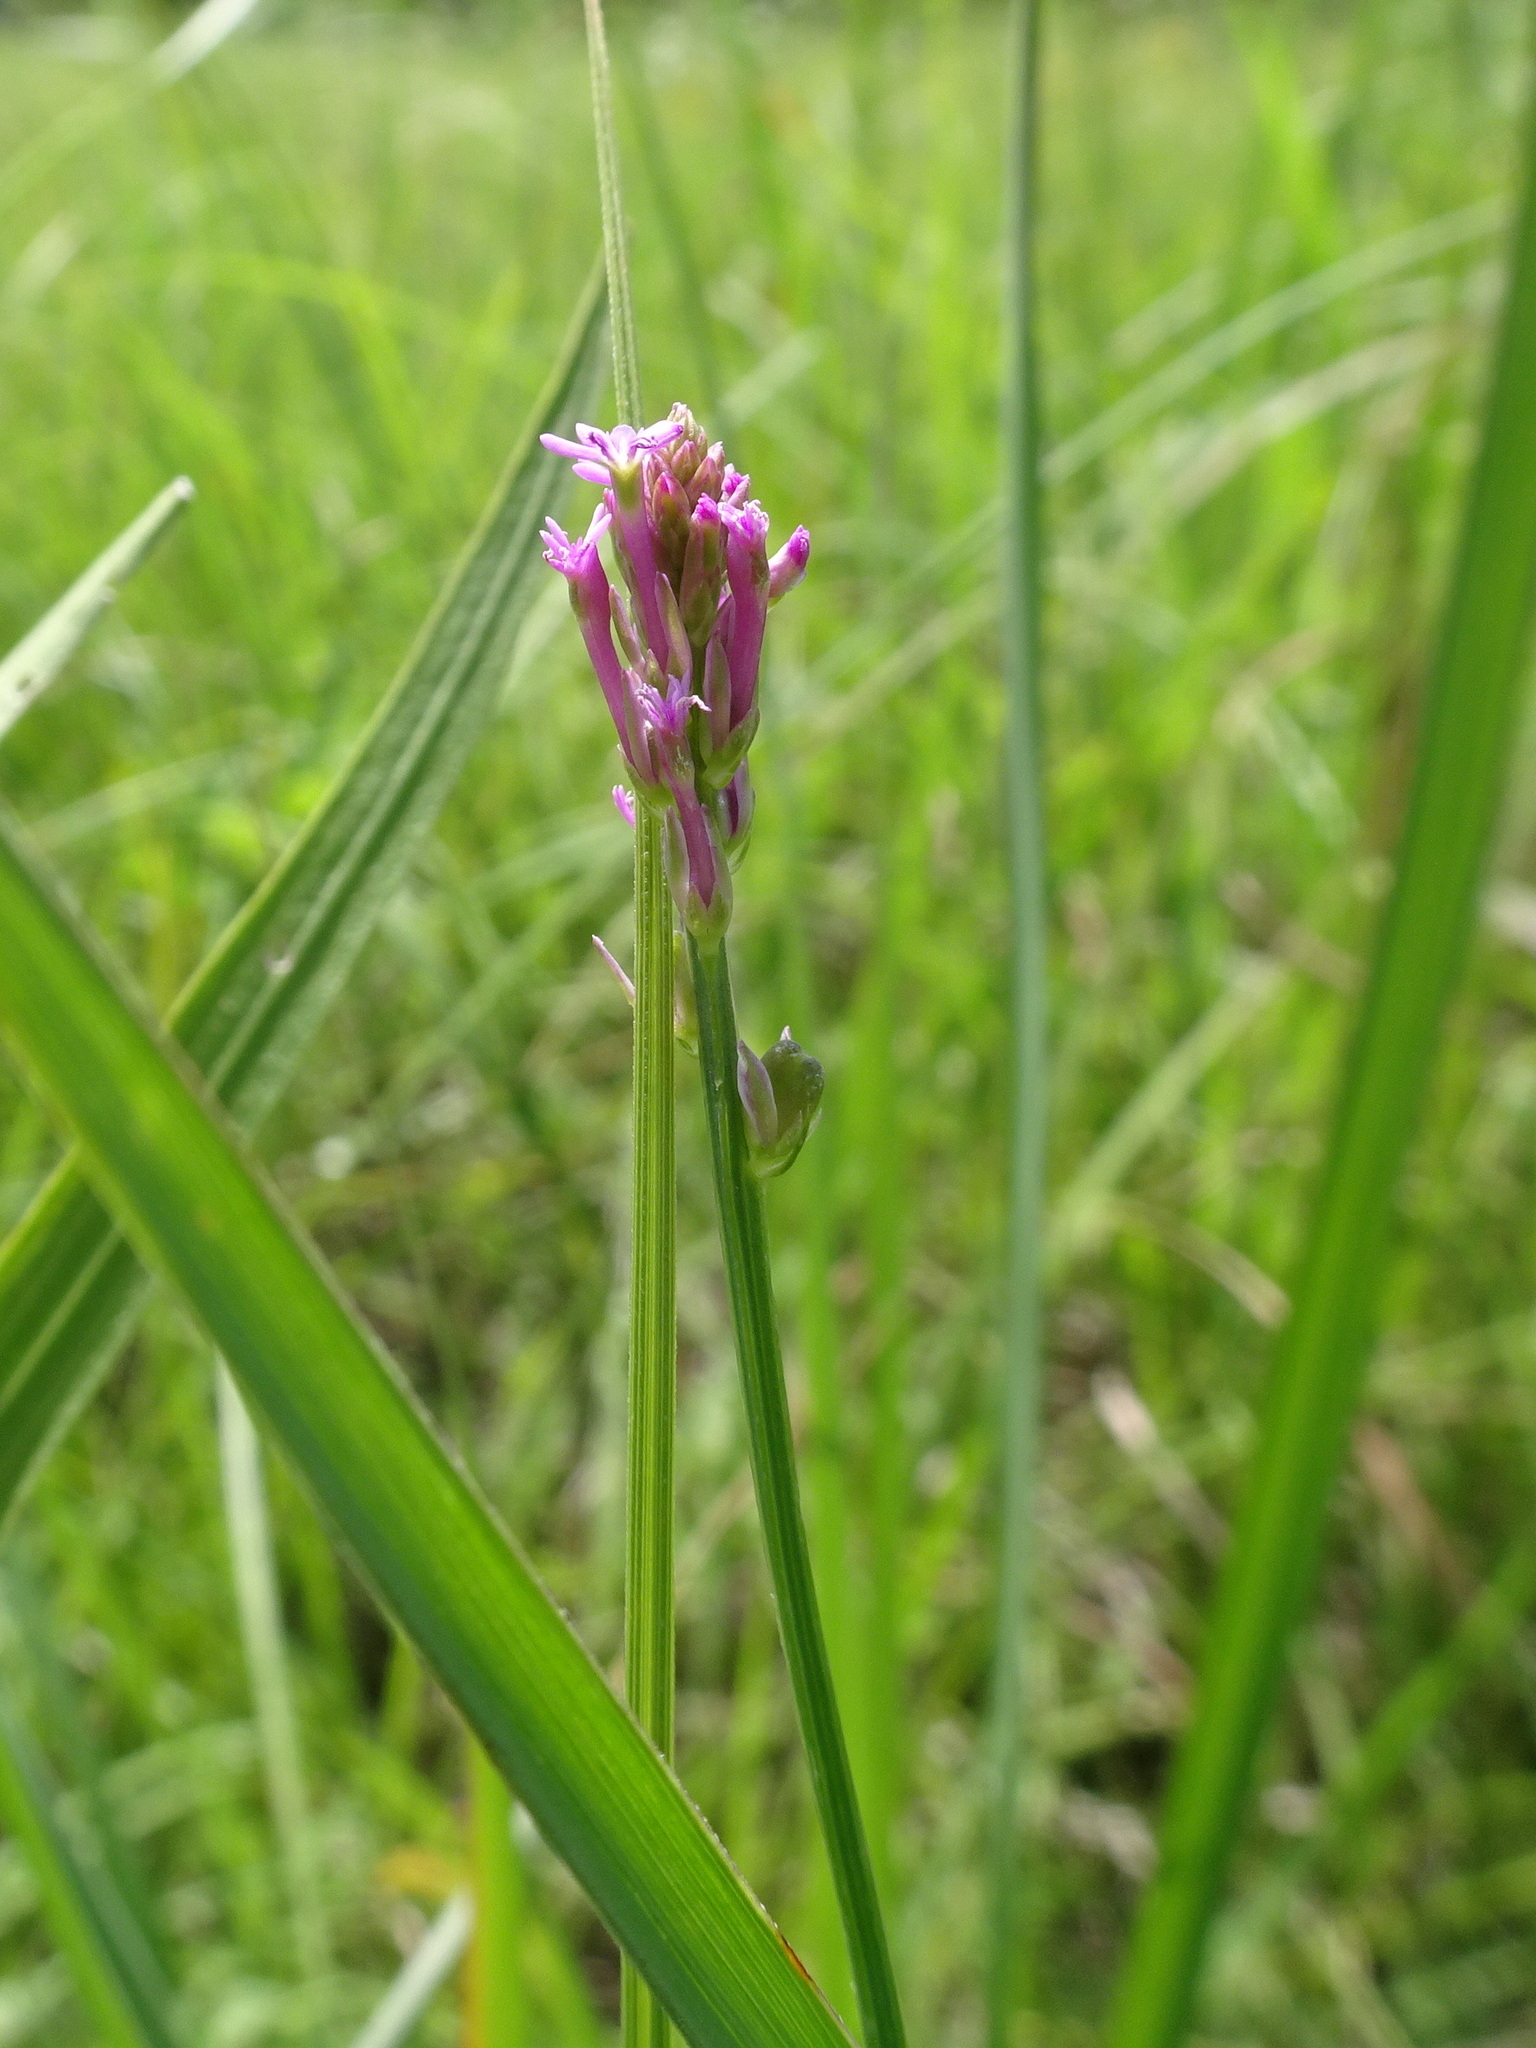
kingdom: Plantae
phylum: Tracheophyta
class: Magnoliopsida
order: Fabales
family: Polygalaceae
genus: Polygala
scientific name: Polygala incarnata
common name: Pink milkwort
